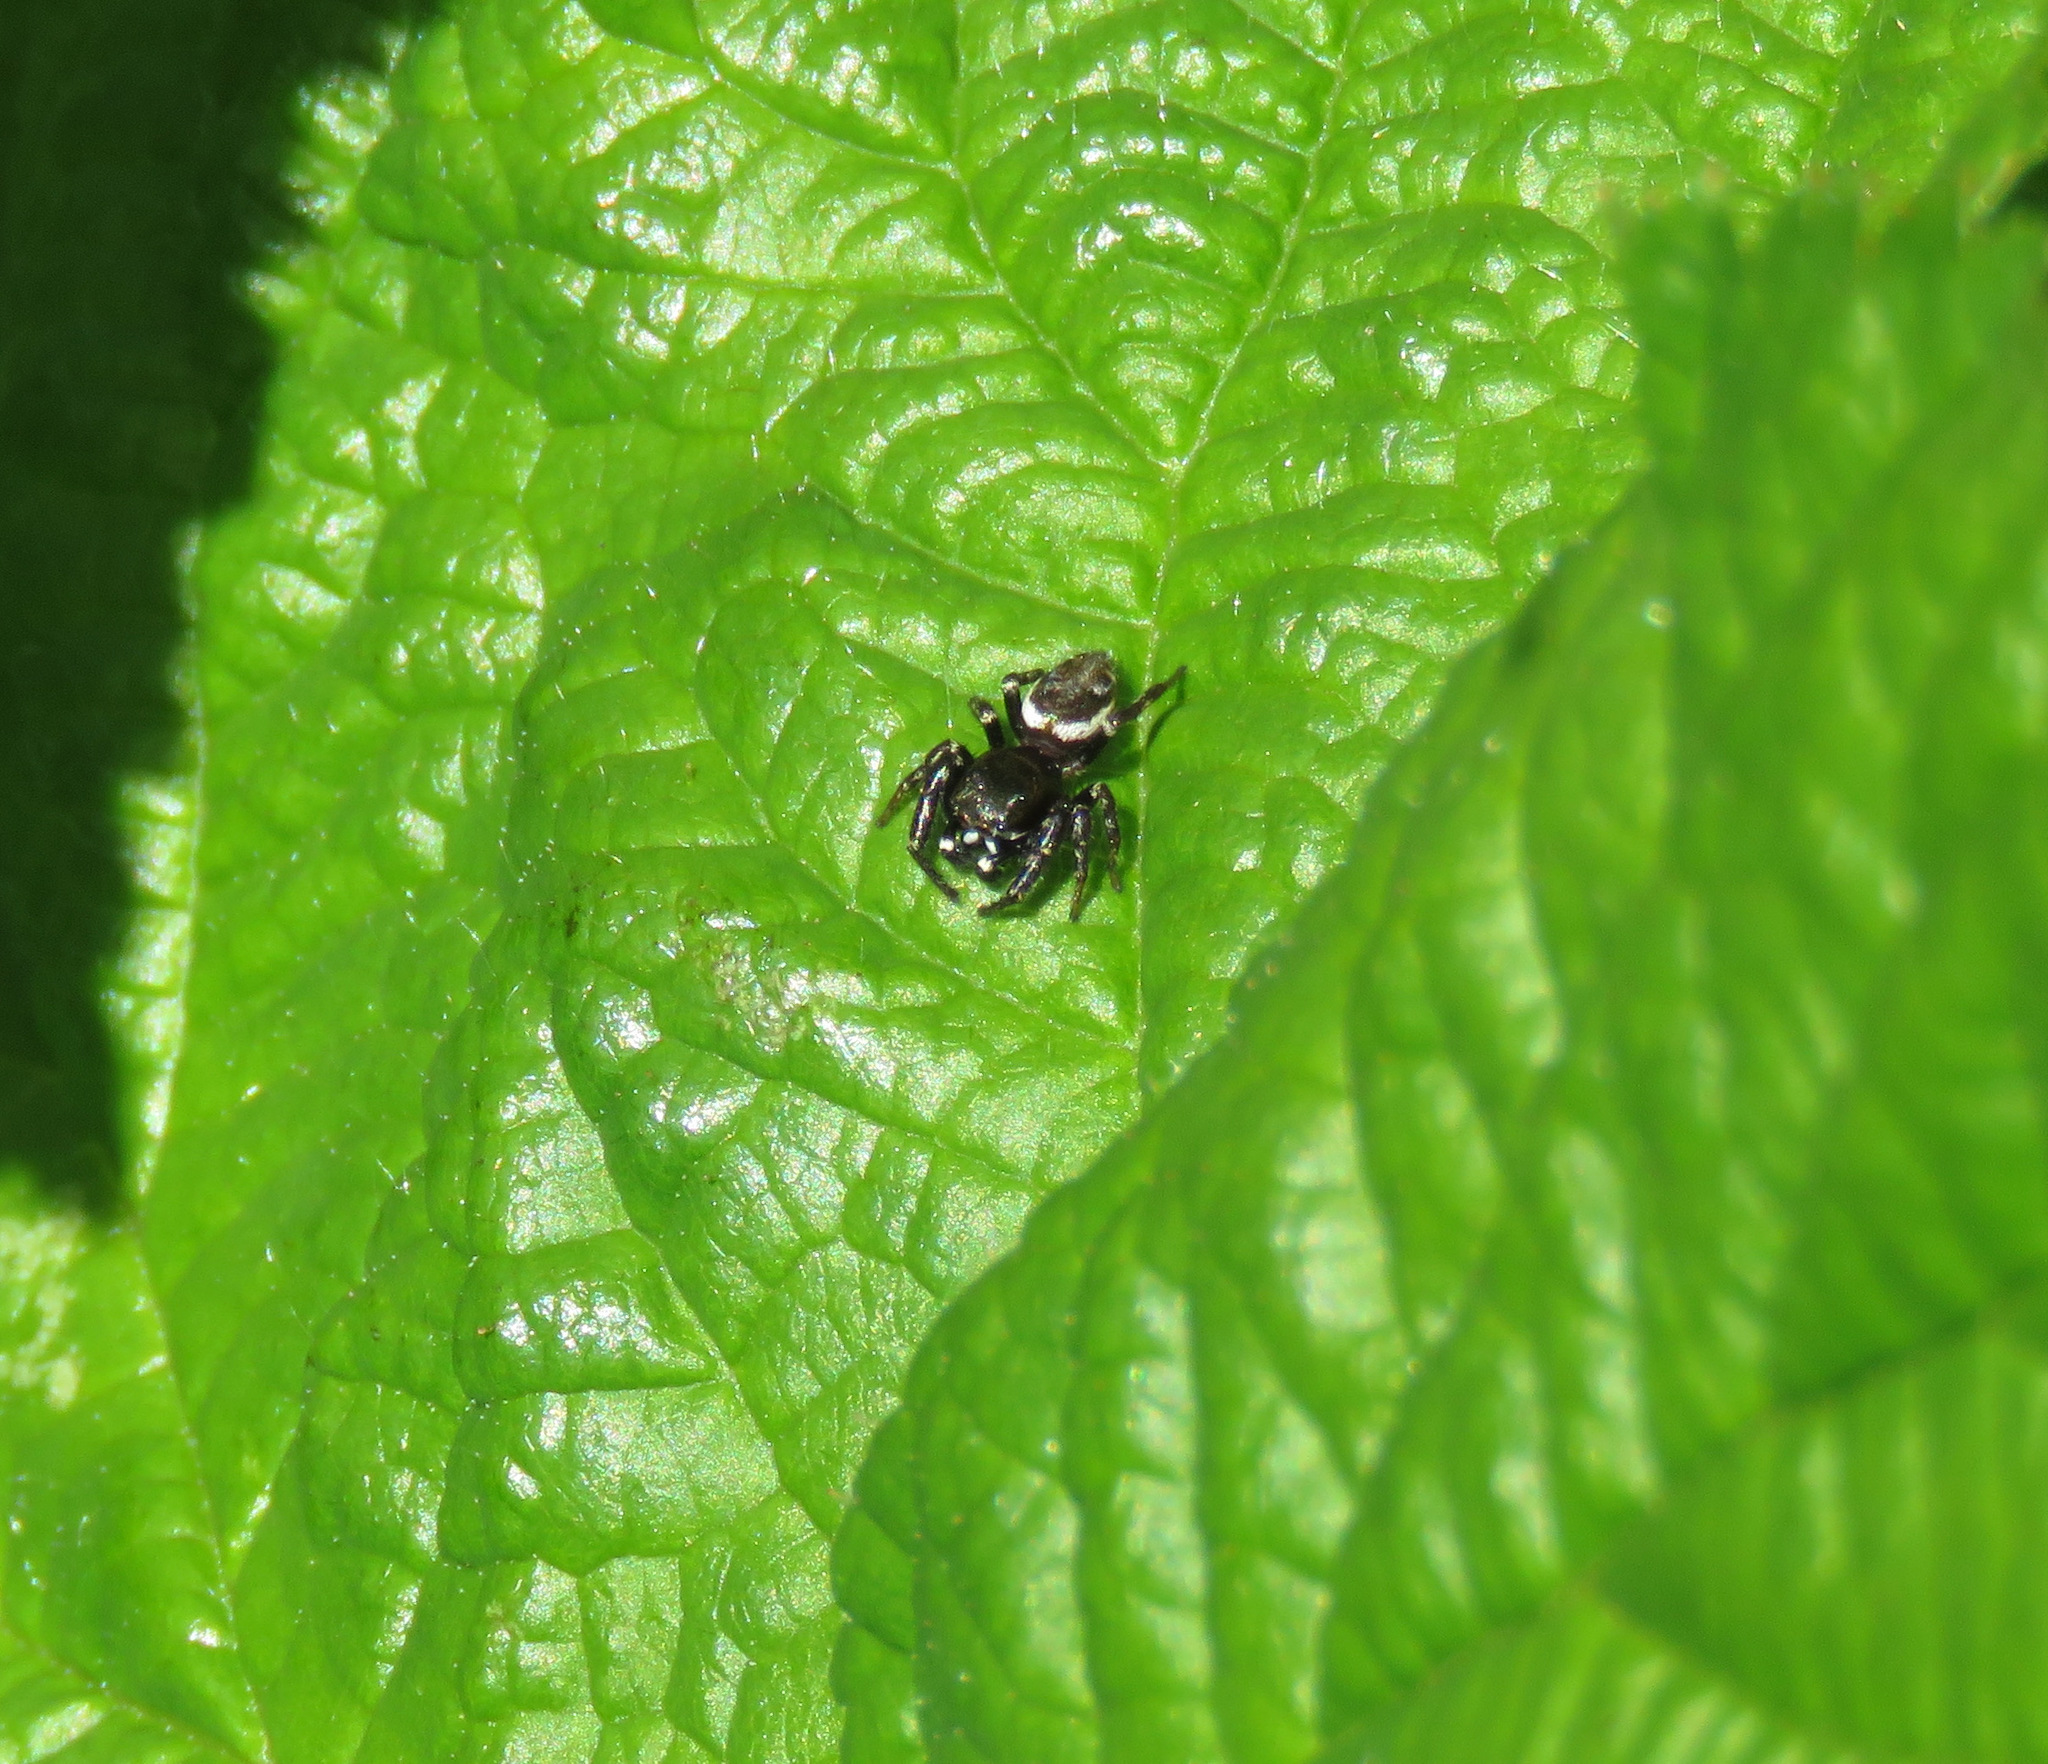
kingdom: Animalia
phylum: Arthropoda
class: Arachnida
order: Araneae
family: Salticidae
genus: Metaphidippus
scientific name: Metaphidippus manni
